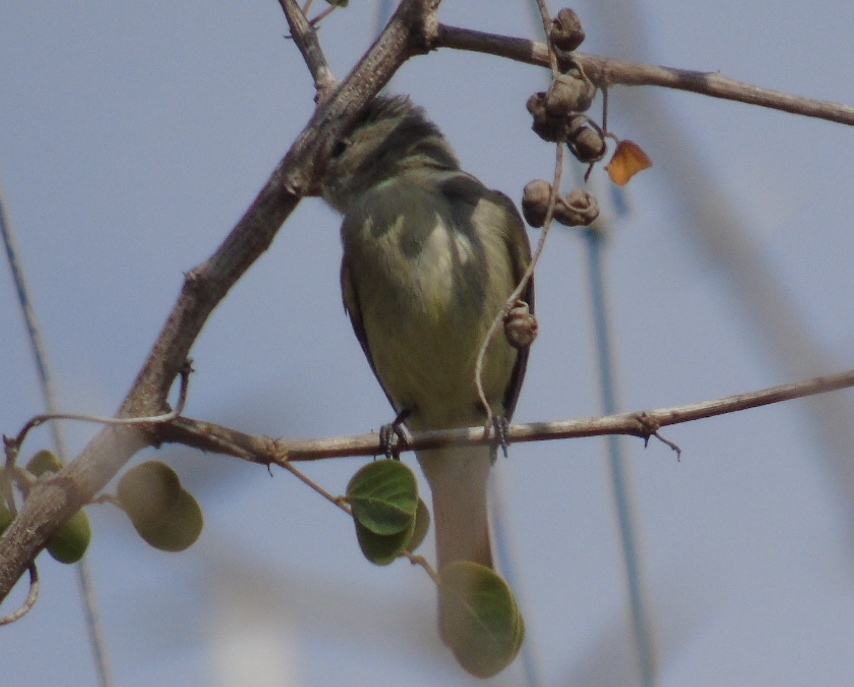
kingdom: Animalia
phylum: Chordata
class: Aves
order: Passeriformes
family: Tyrannidae
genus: Camptostoma
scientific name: Camptostoma imberbe
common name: Northern beardless-tyrannulet
